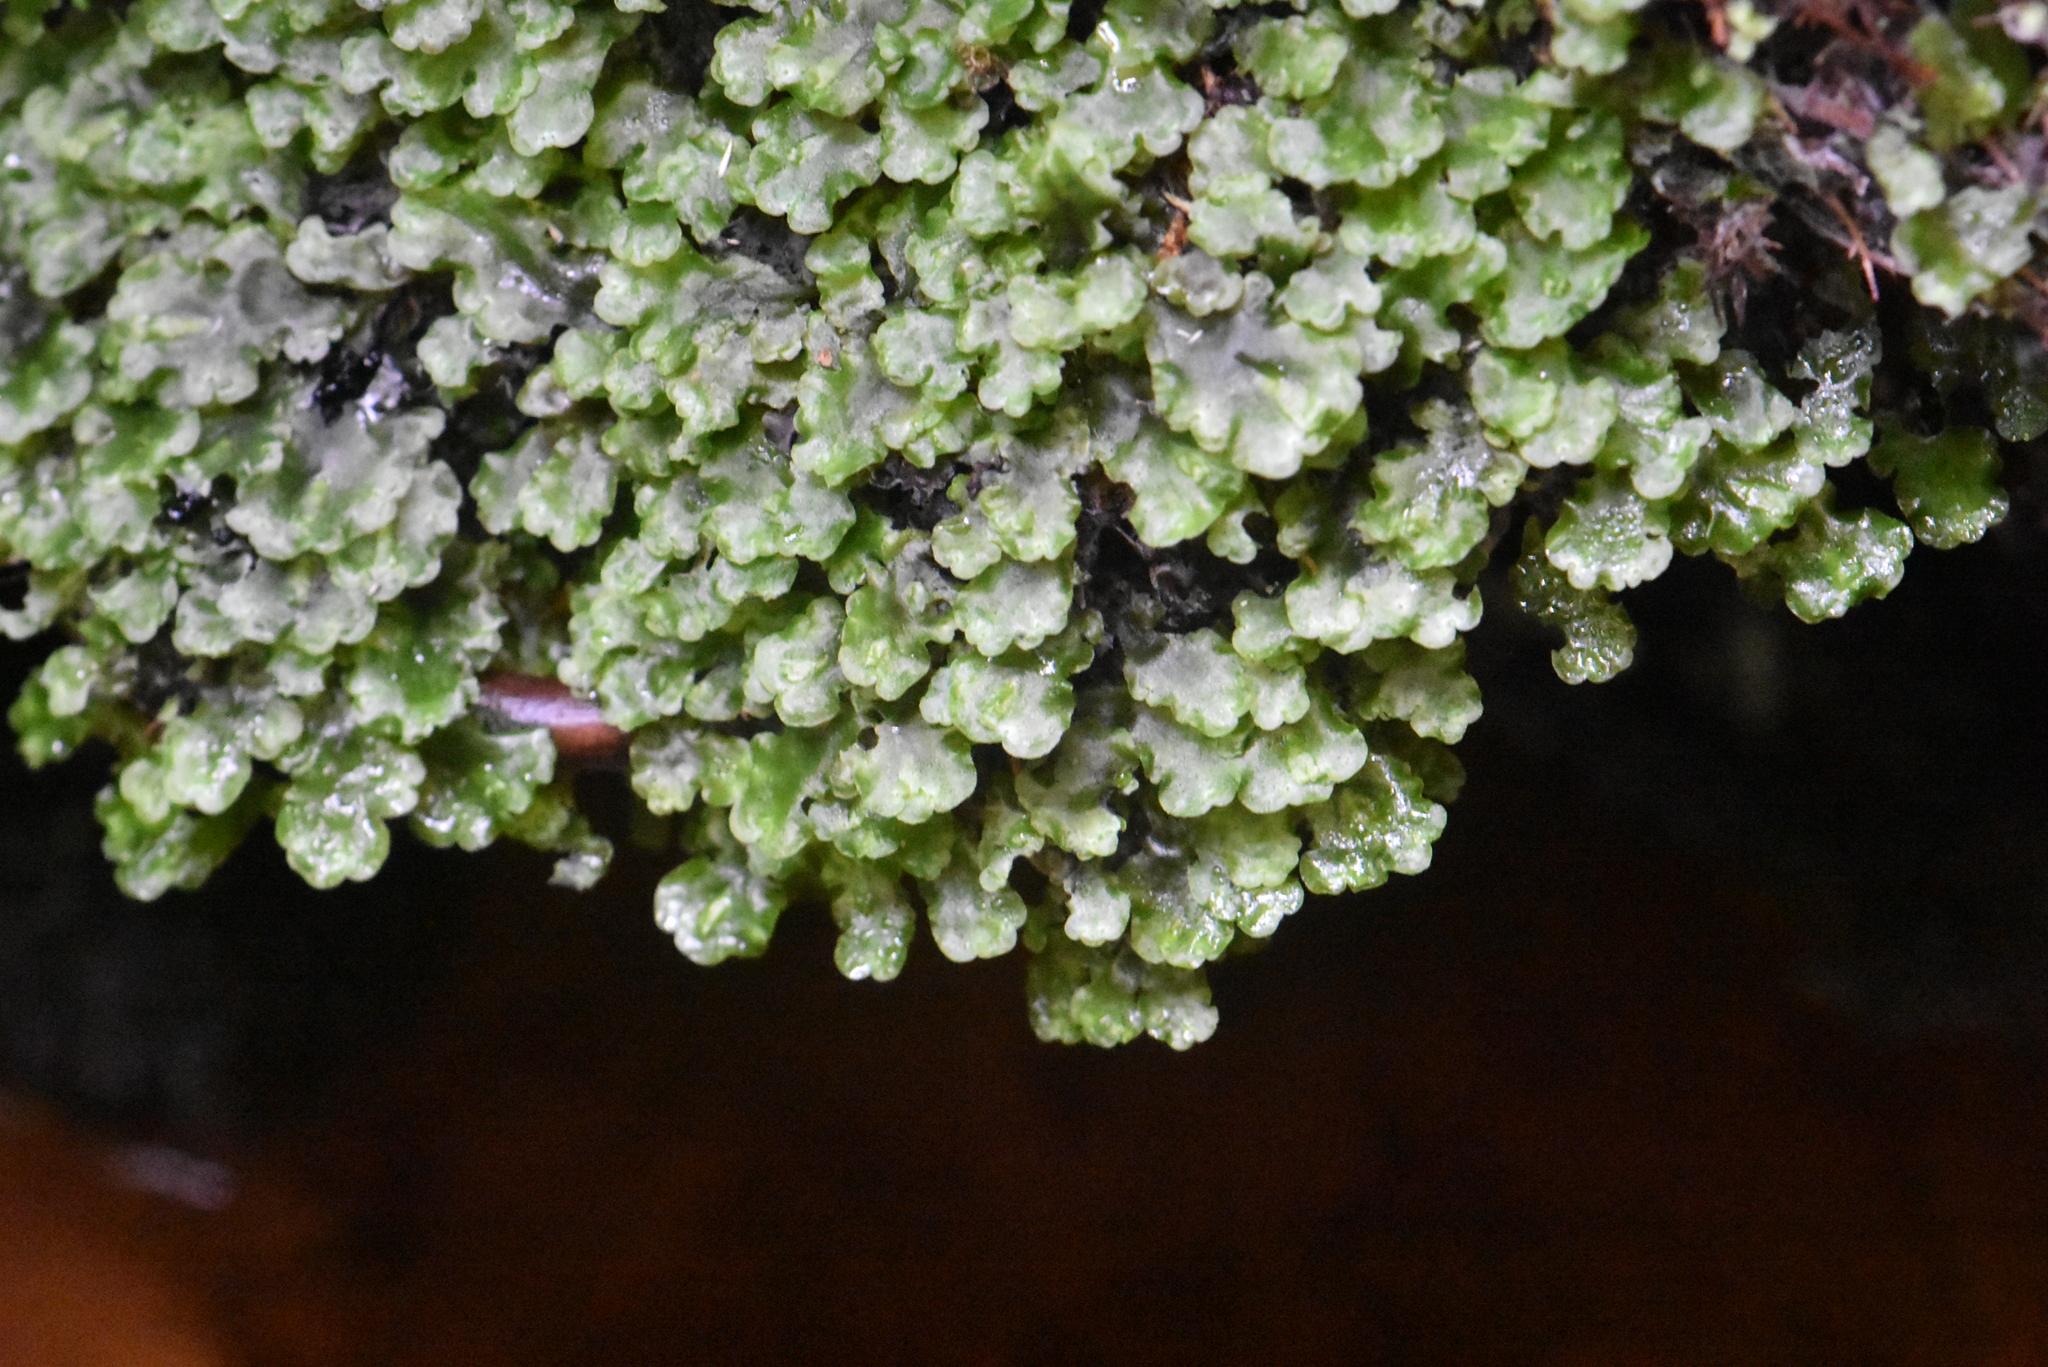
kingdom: Plantae
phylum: Marchantiophyta
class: Jungermanniopsida
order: Pelliales
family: Pelliaceae
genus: Pellia
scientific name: Pellia epiphylla
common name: Common pellia
